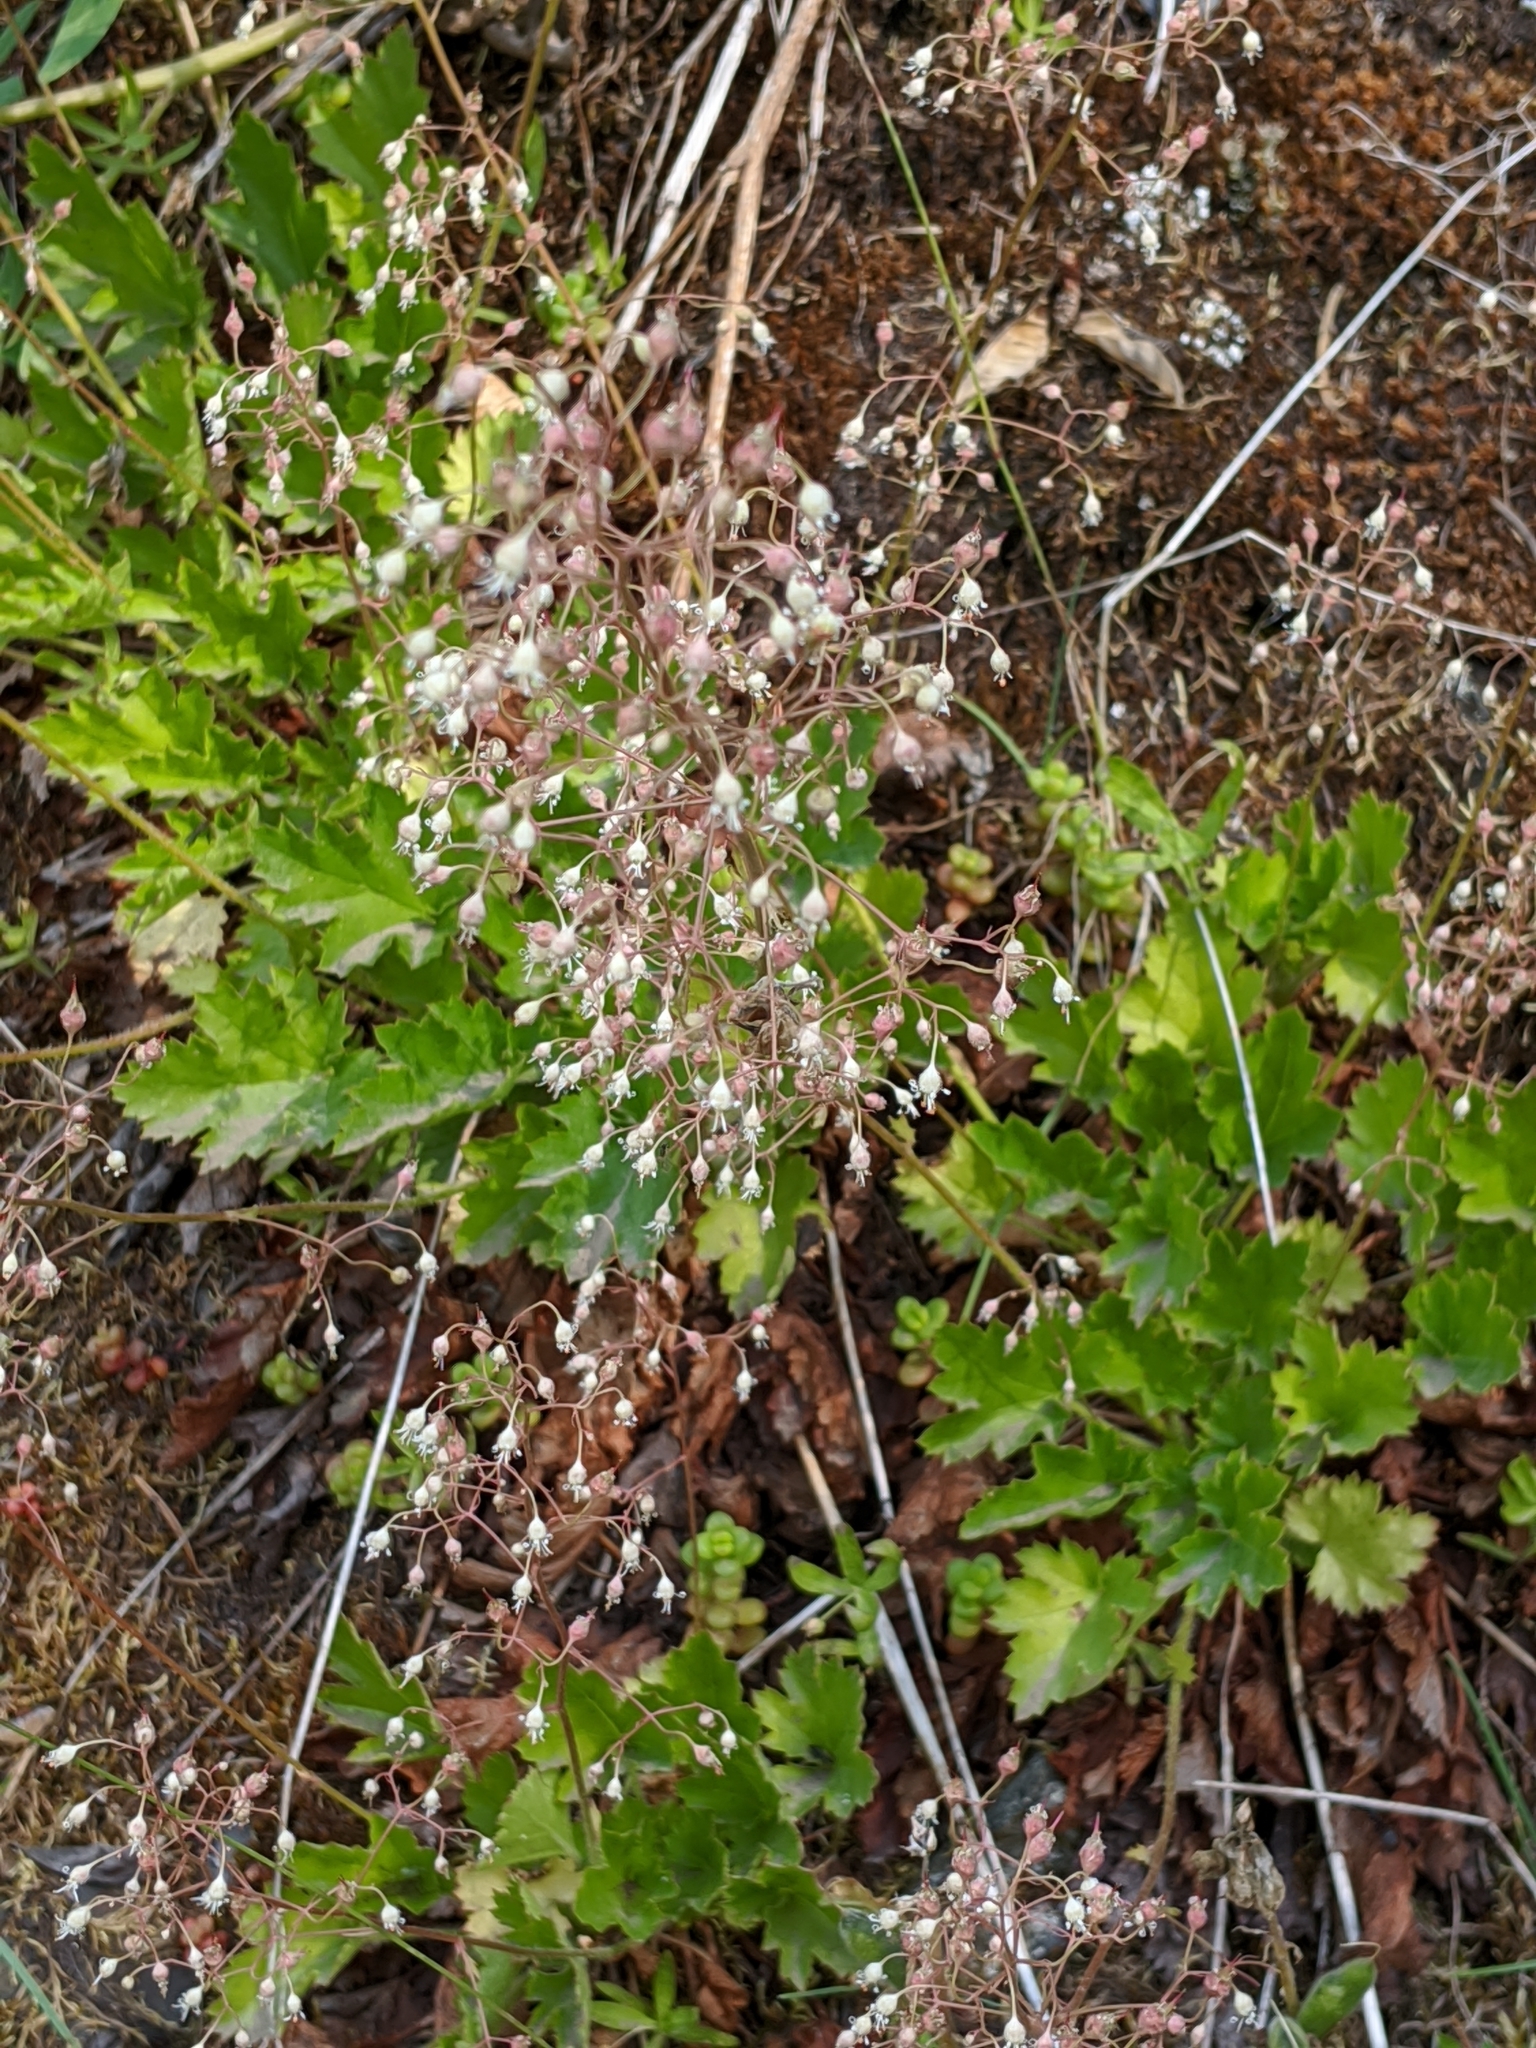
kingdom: Plantae
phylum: Tracheophyta
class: Magnoliopsida
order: Saxifragales
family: Saxifragaceae
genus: Heuchera
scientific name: Heuchera micrantha
